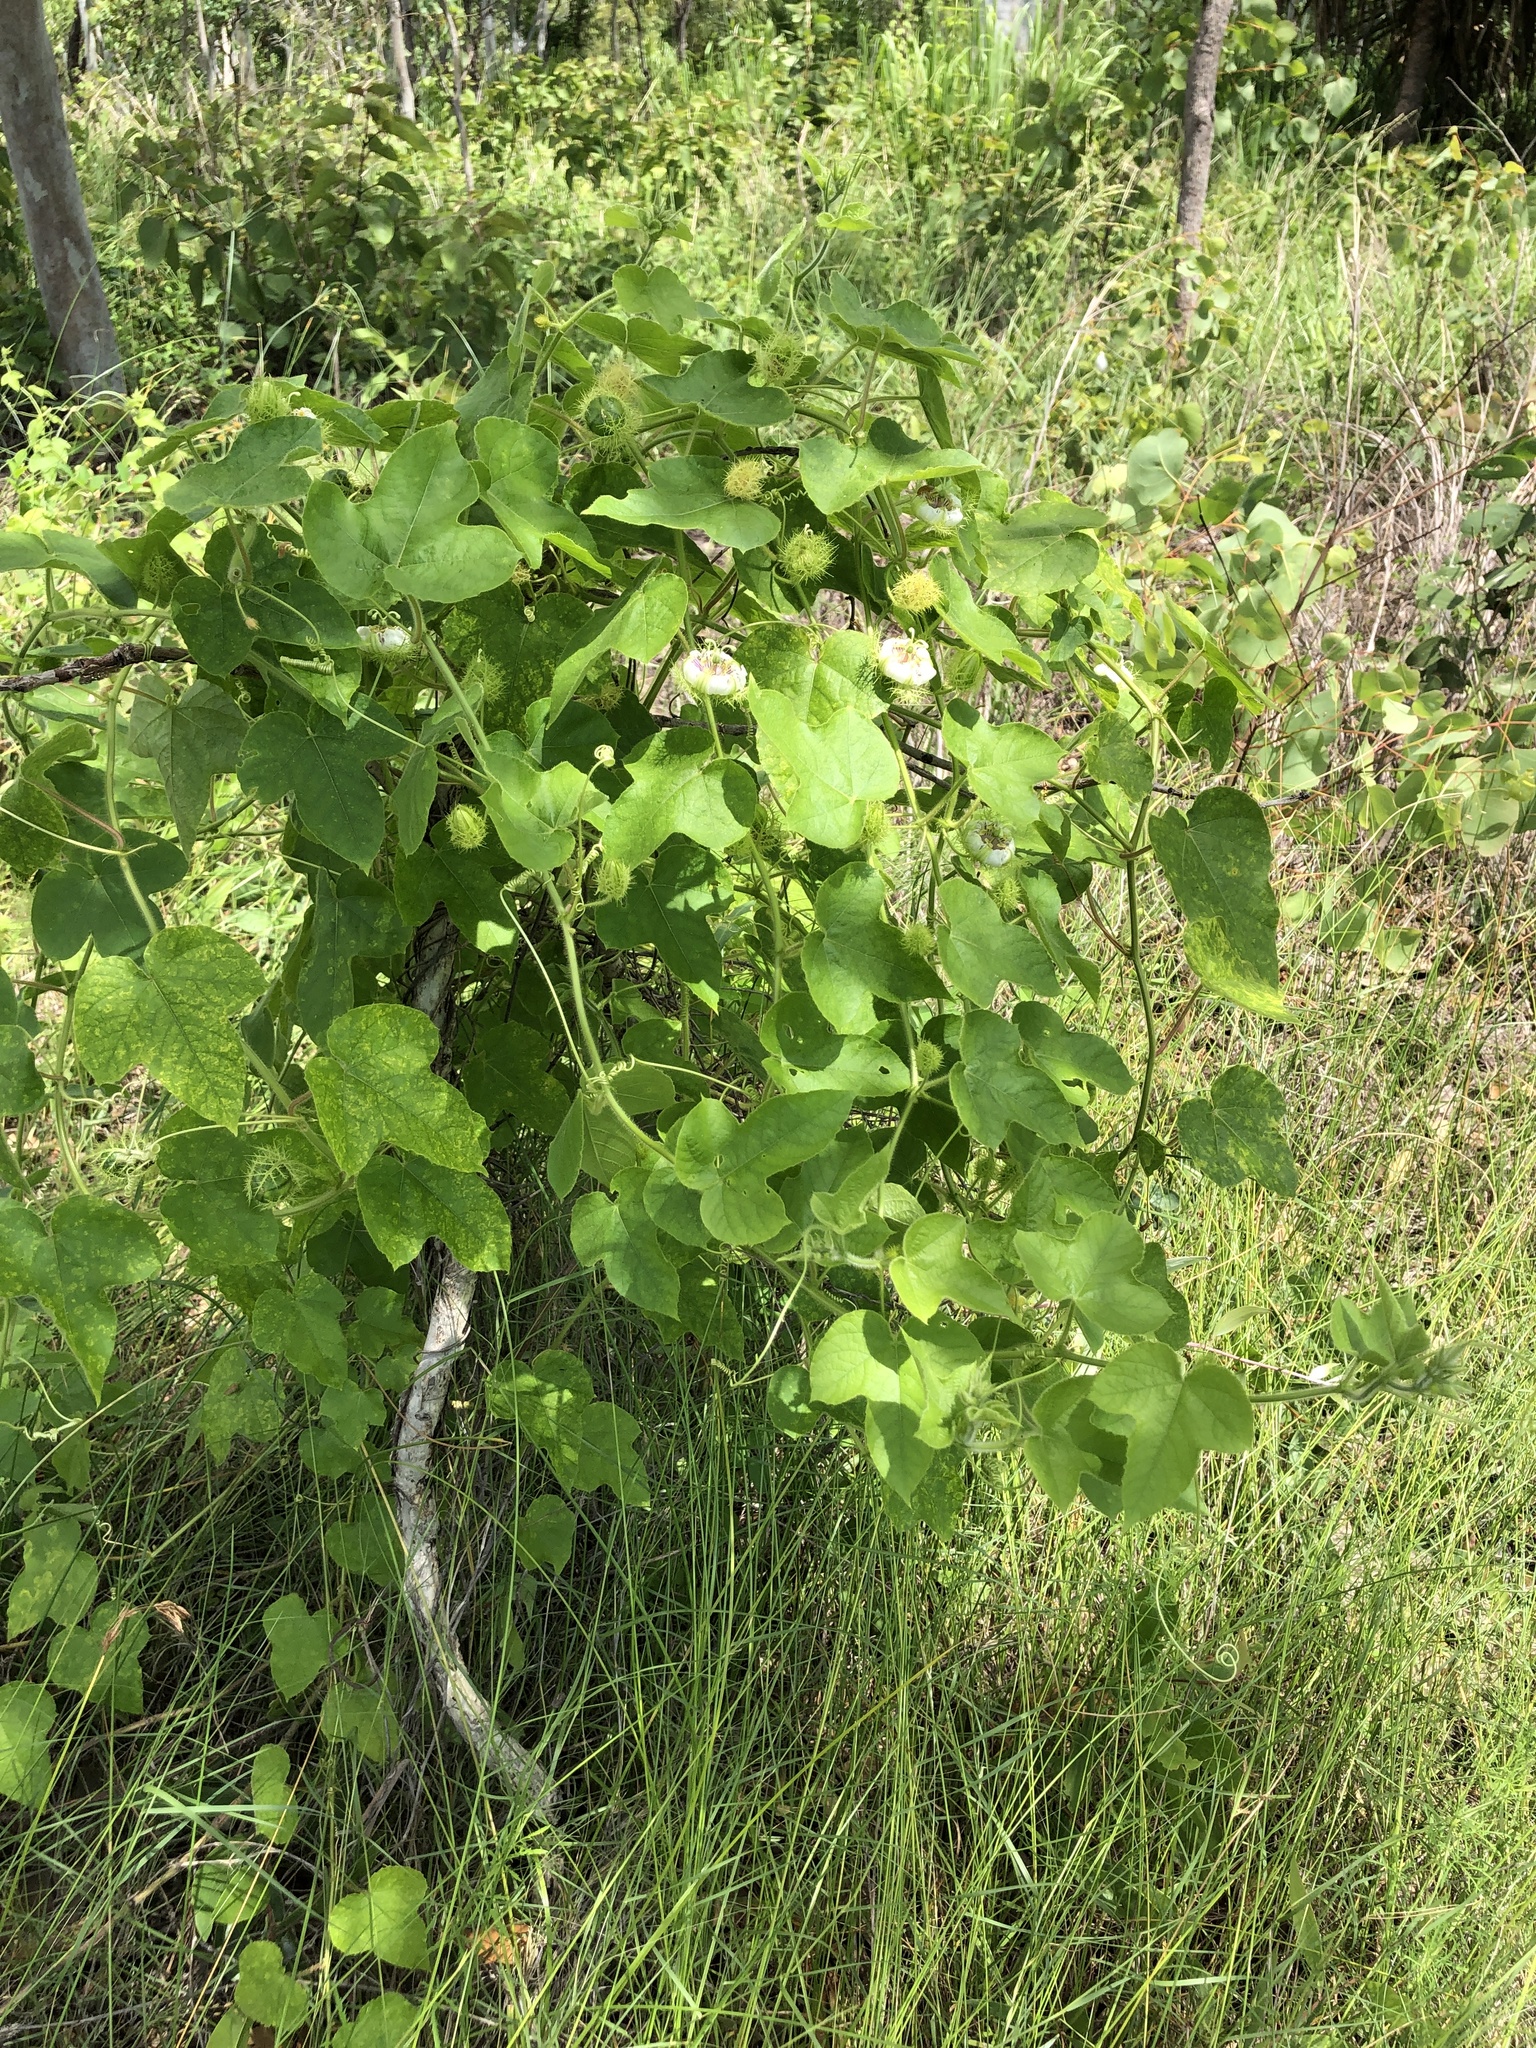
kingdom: Plantae
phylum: Tracheophyta
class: Magnoliopsida
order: Malpighiales
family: Passifloraceae
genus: Passiflora
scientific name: Passiflora foetida
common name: Fetid passionflower
